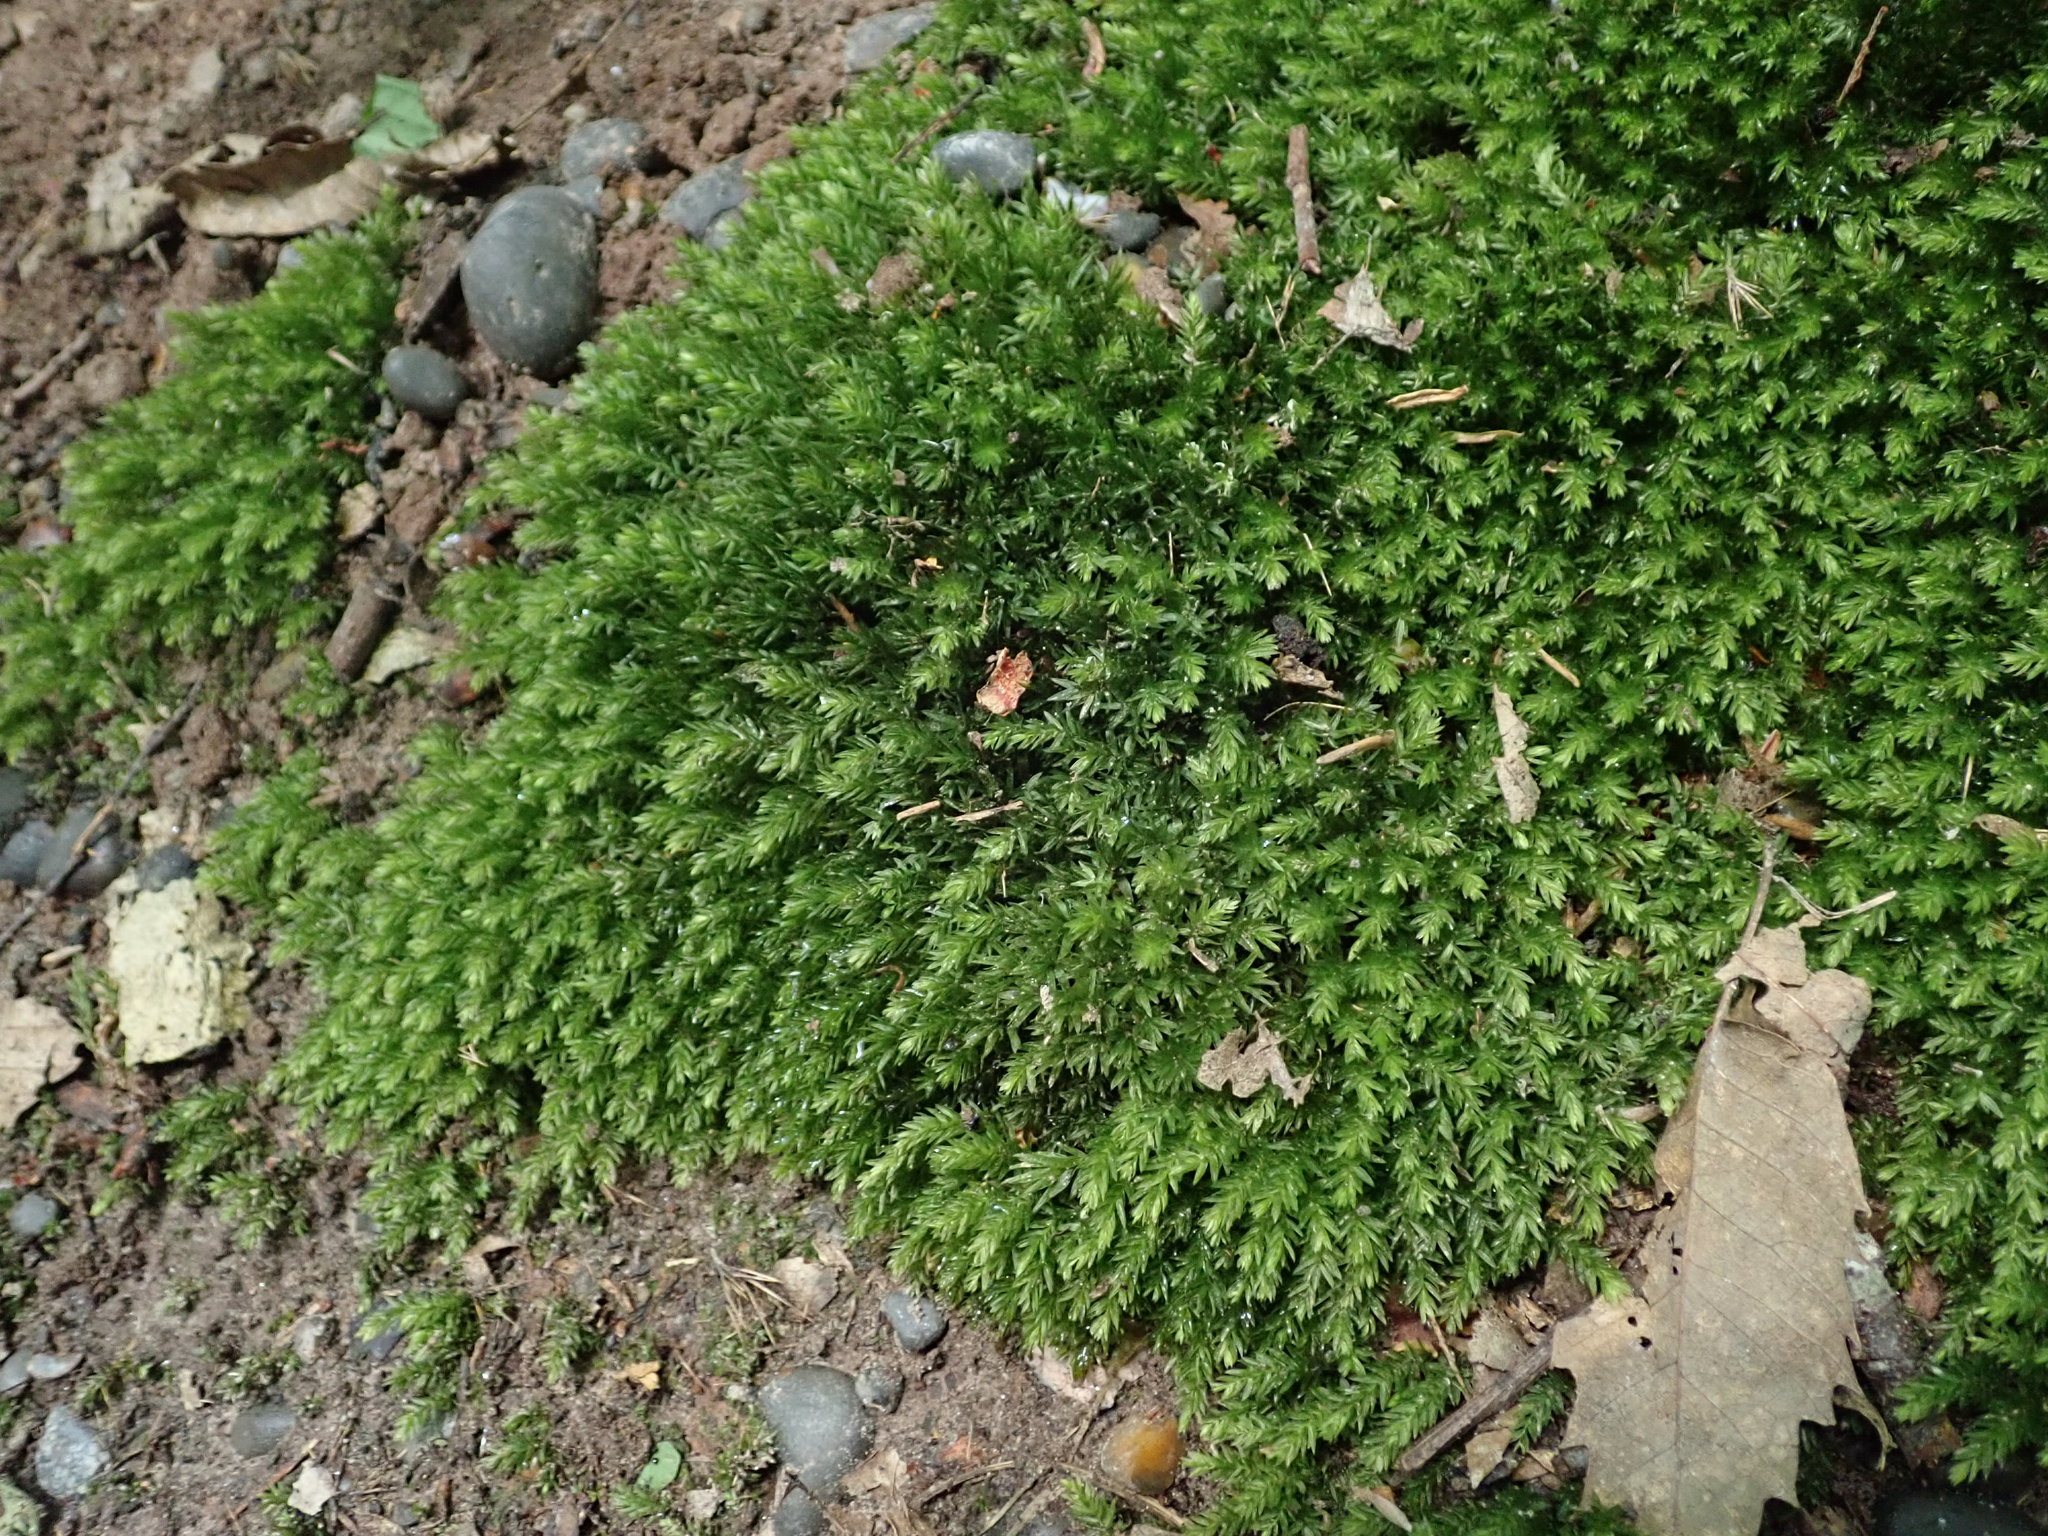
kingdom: Plantae
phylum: Bryophyta
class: Bryopsida
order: Bryales
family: Mniaceae
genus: Mnium
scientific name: Mnium hornum
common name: Swan's-neck leafy moss
